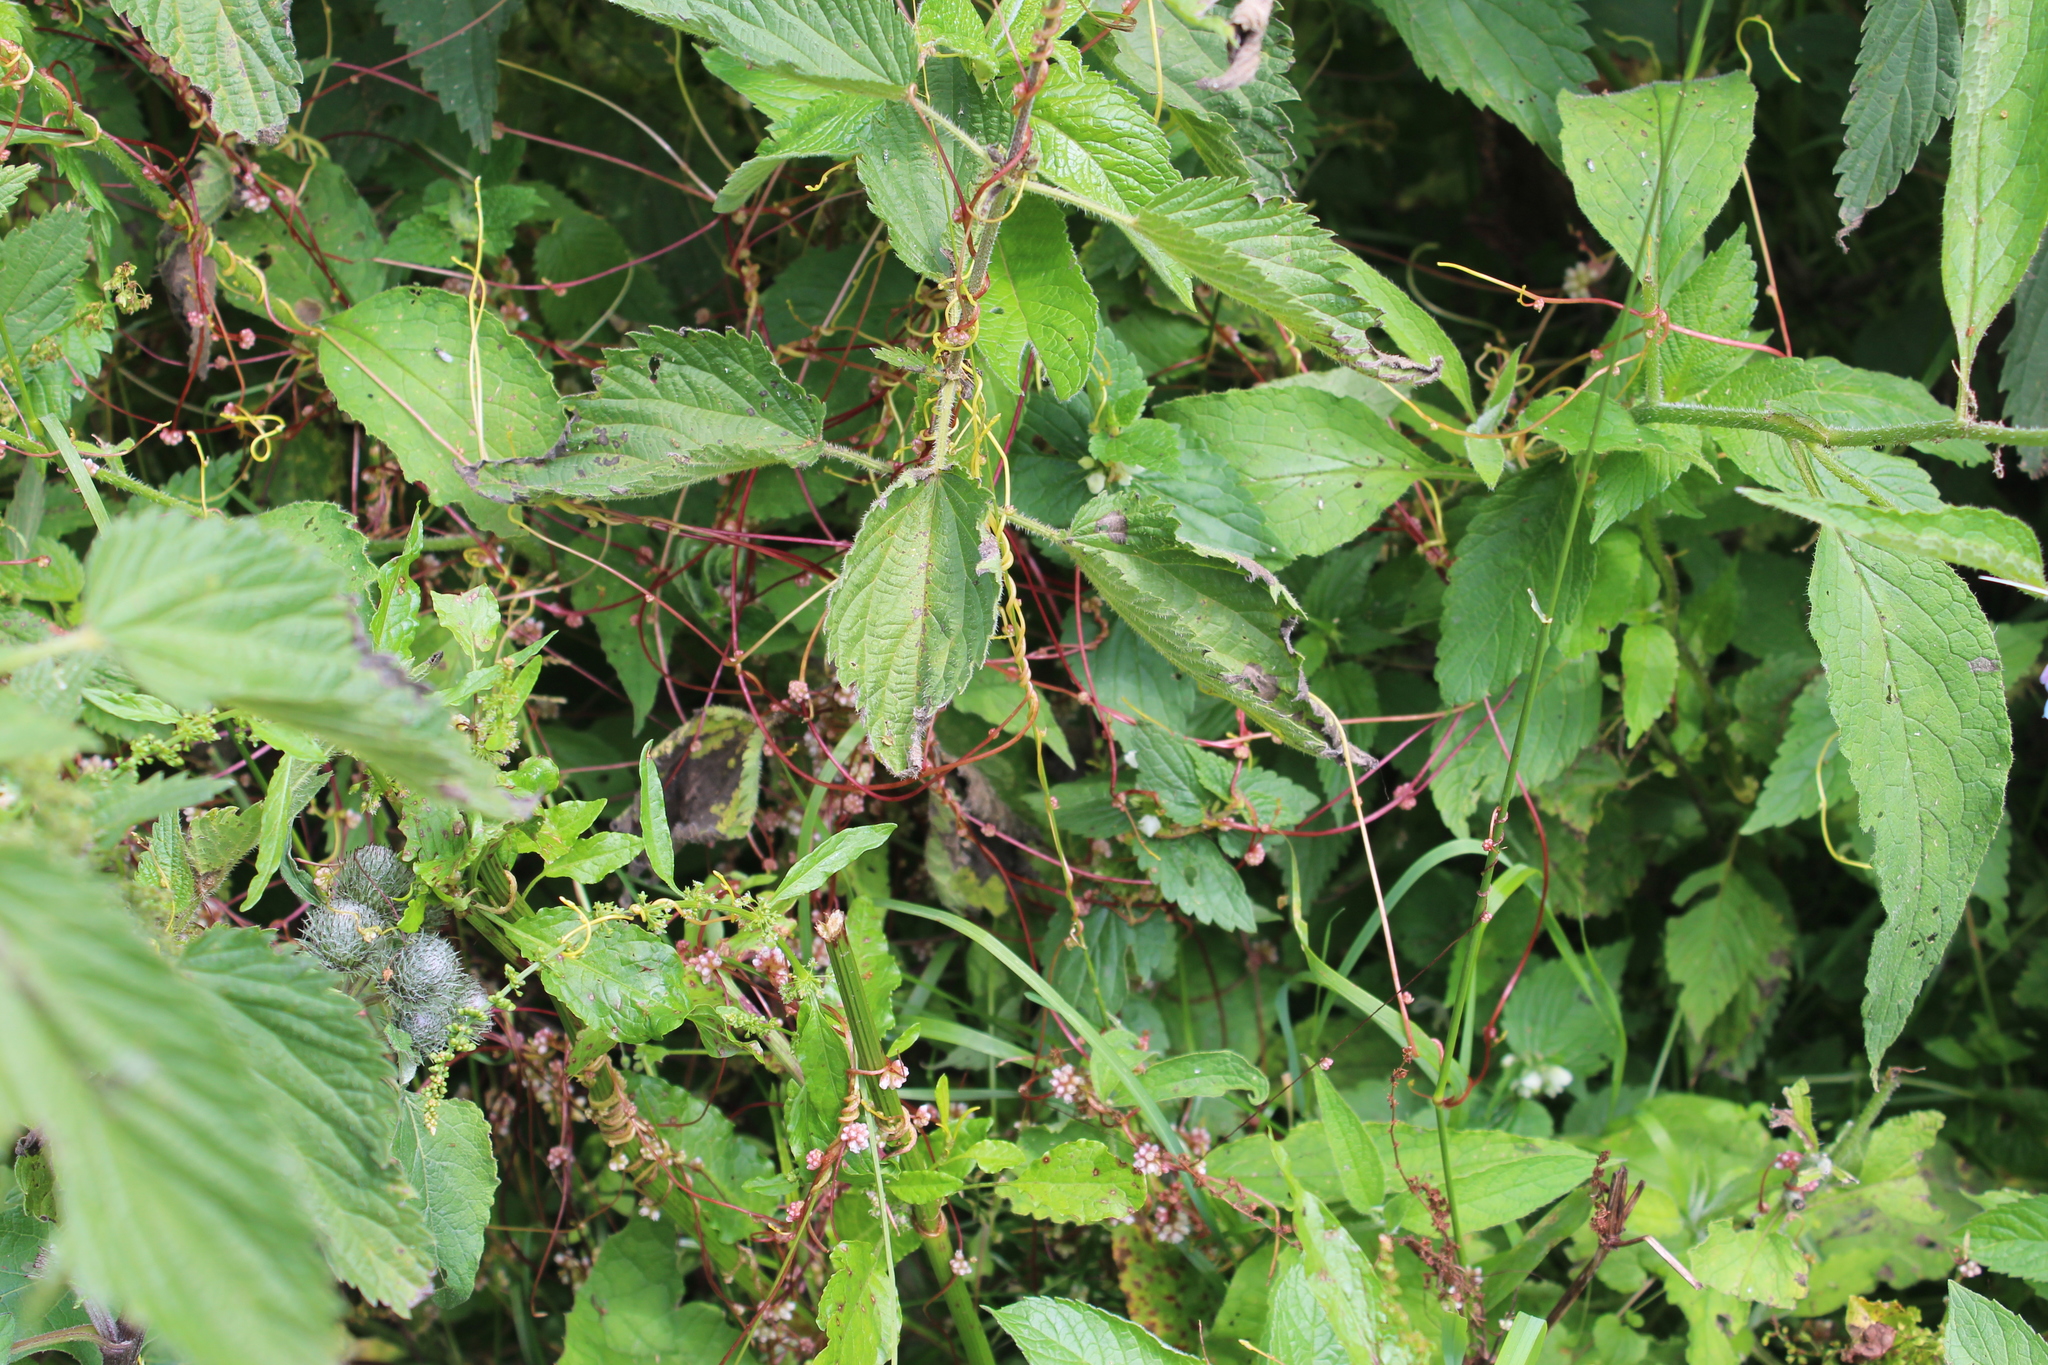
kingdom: Plantae
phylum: Tracheophyta
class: Magnoliopsida
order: Solanales
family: Convolvulaceae
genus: Cuscuta
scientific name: Cuscuta europaea
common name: Greater dodder
